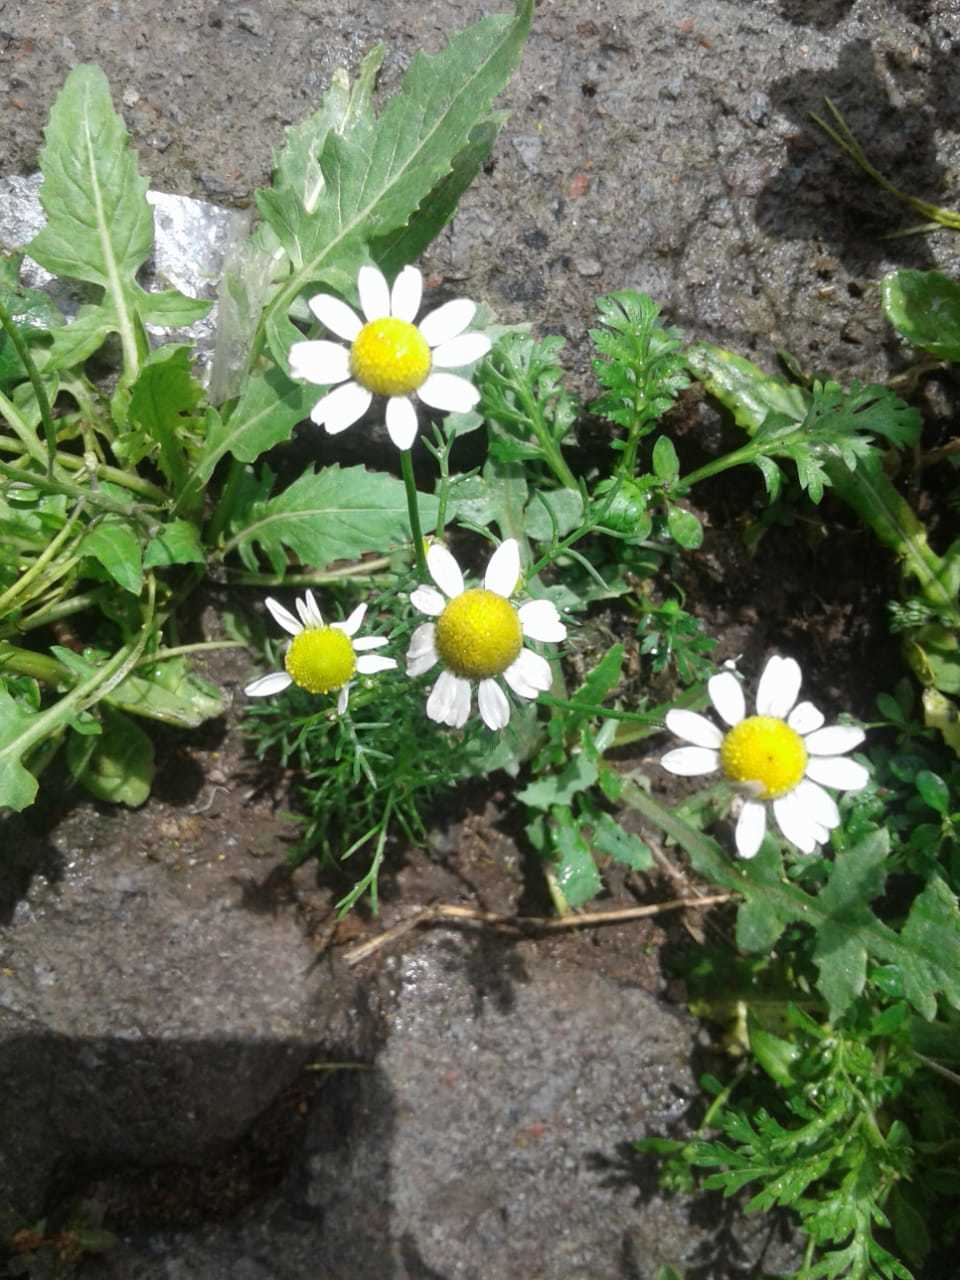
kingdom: Plantae
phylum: Tracheophyta
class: Magnoliopsida
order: Asterales
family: Asteraceae
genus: Matricaria
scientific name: Matricaria chamomilla
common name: Scented mayweed
